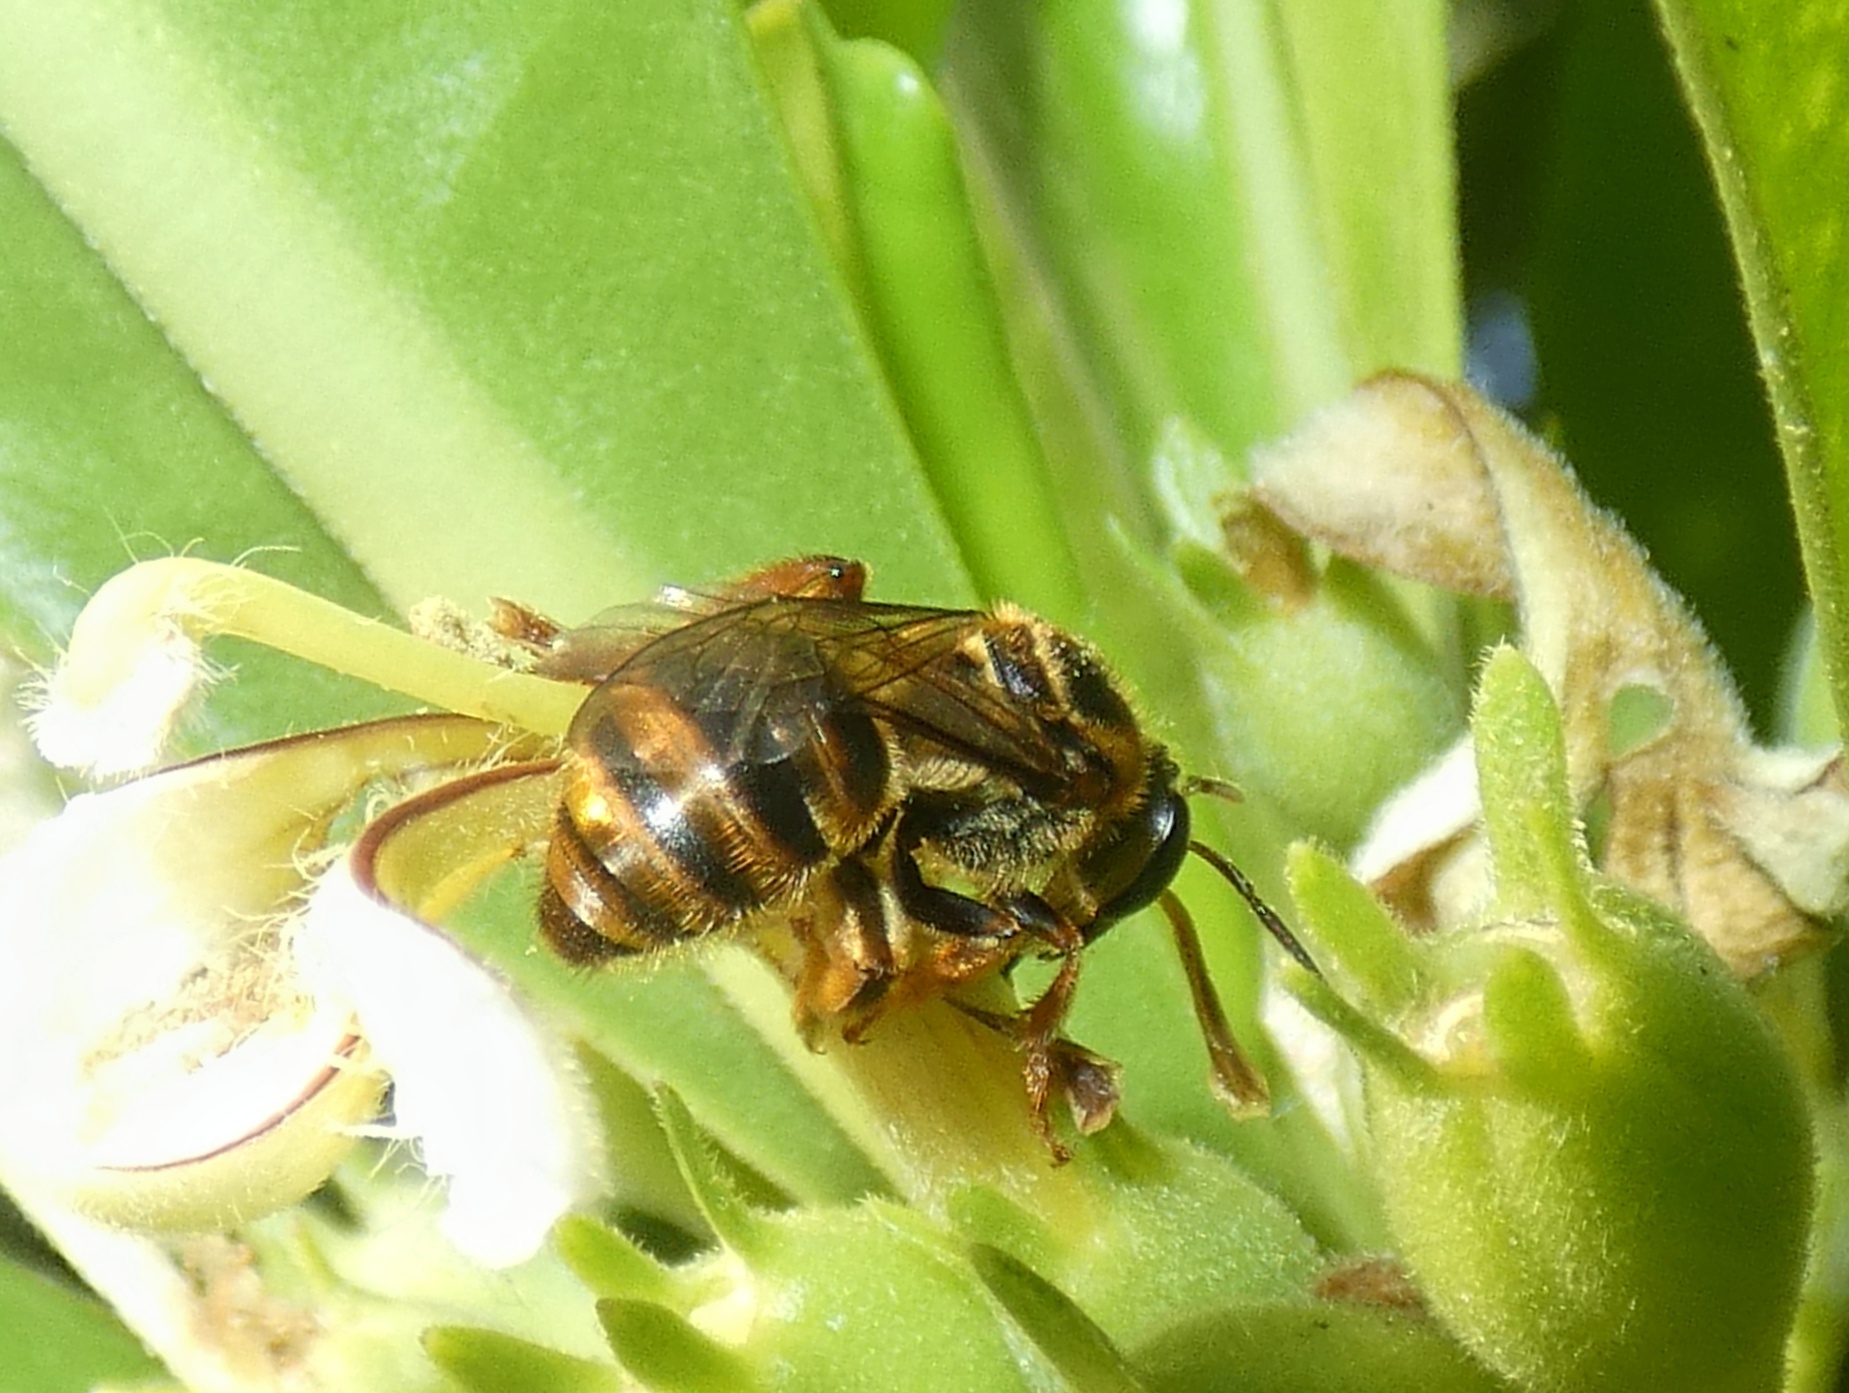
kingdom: Animalia
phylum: Arthropoda
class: Insecta
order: Hymenoptera
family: Halictidae
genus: Mellitidia
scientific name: Mellitidia tomentifera
